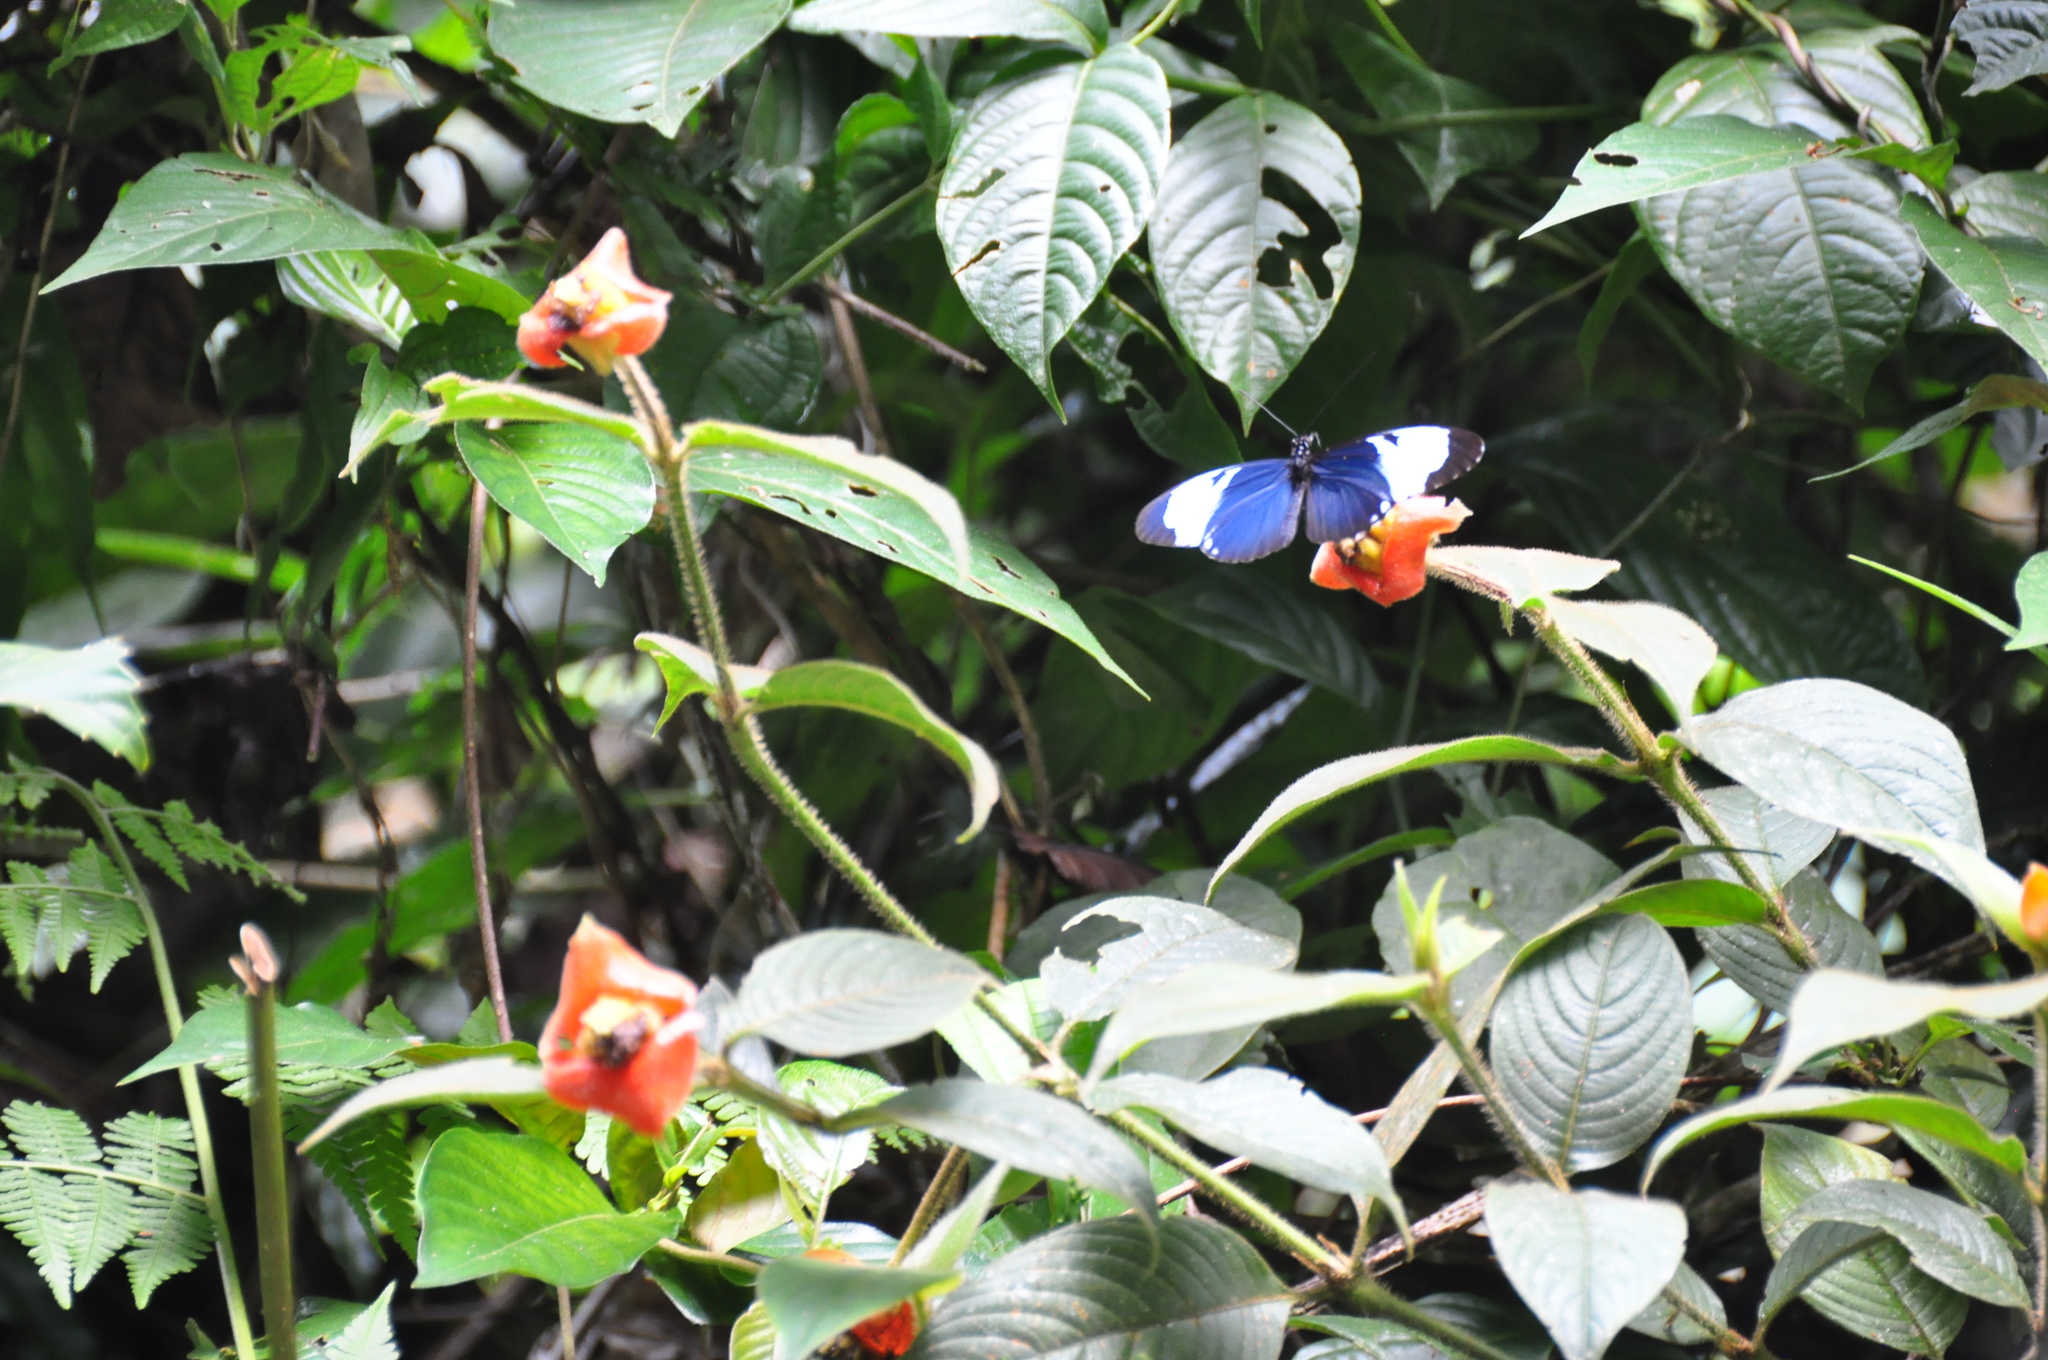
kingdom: Animalia
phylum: Arthropoda
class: Insecta
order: Lepidoptera
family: Nymphalidae
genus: Heliconius
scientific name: Heliconius cydno
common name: Cydno longwing
